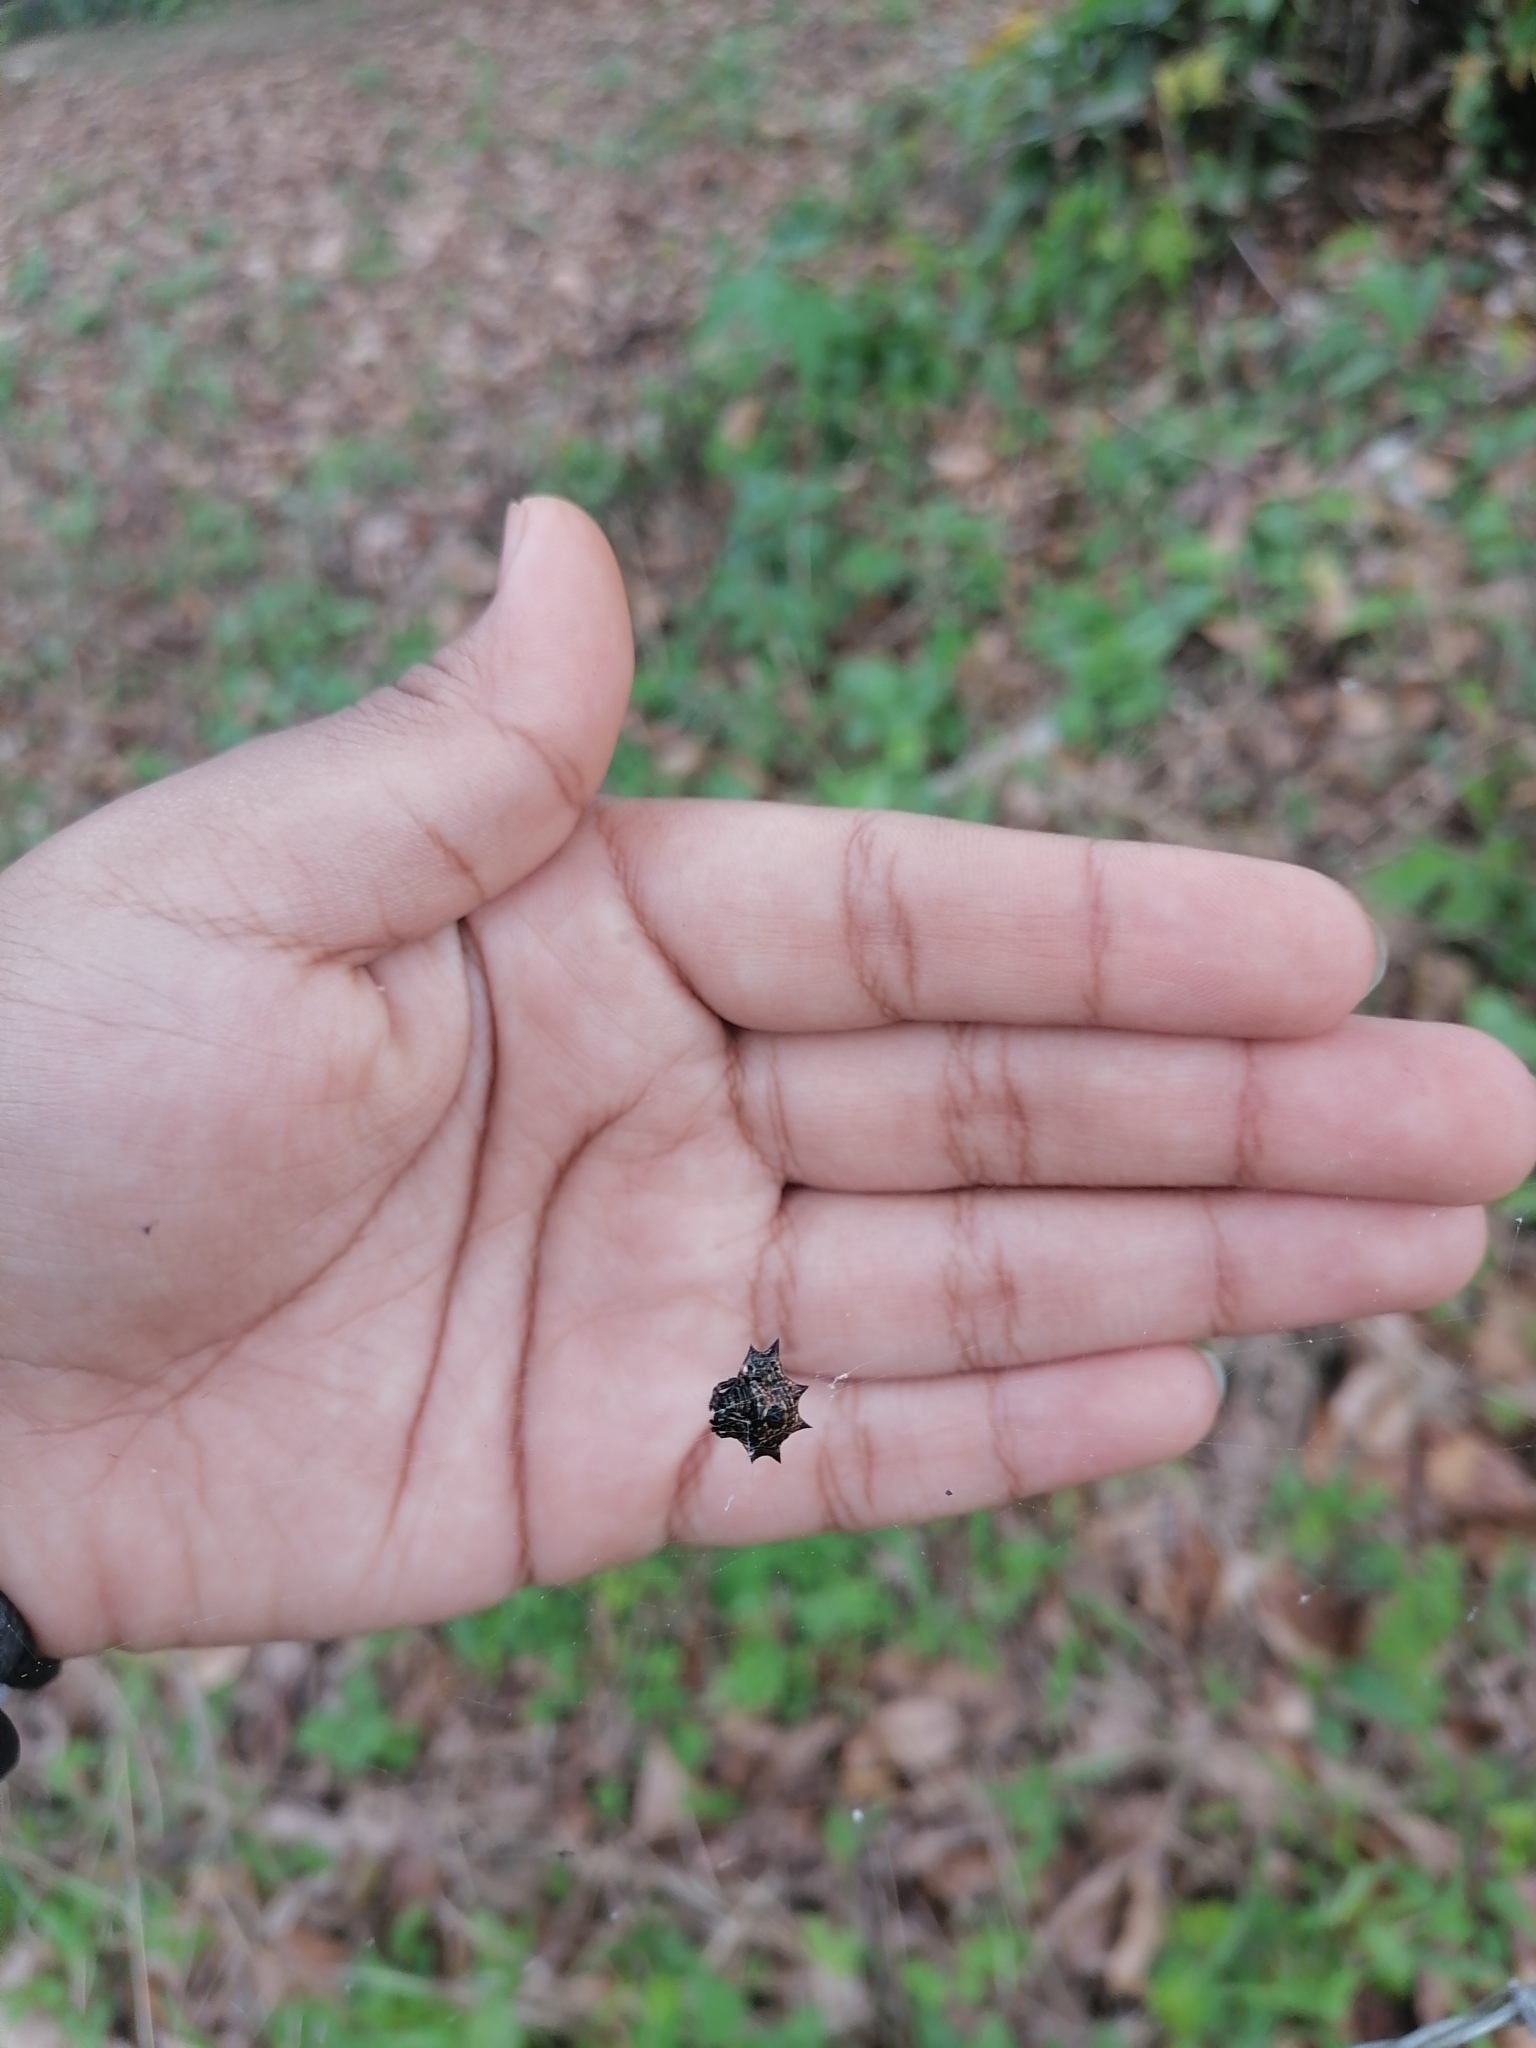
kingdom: Animalia
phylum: Arthropoda
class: Arachnida
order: Araneae
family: Araneidae
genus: Gasteracantha
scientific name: Gasteracantha cancriformis
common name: Orb weavers
